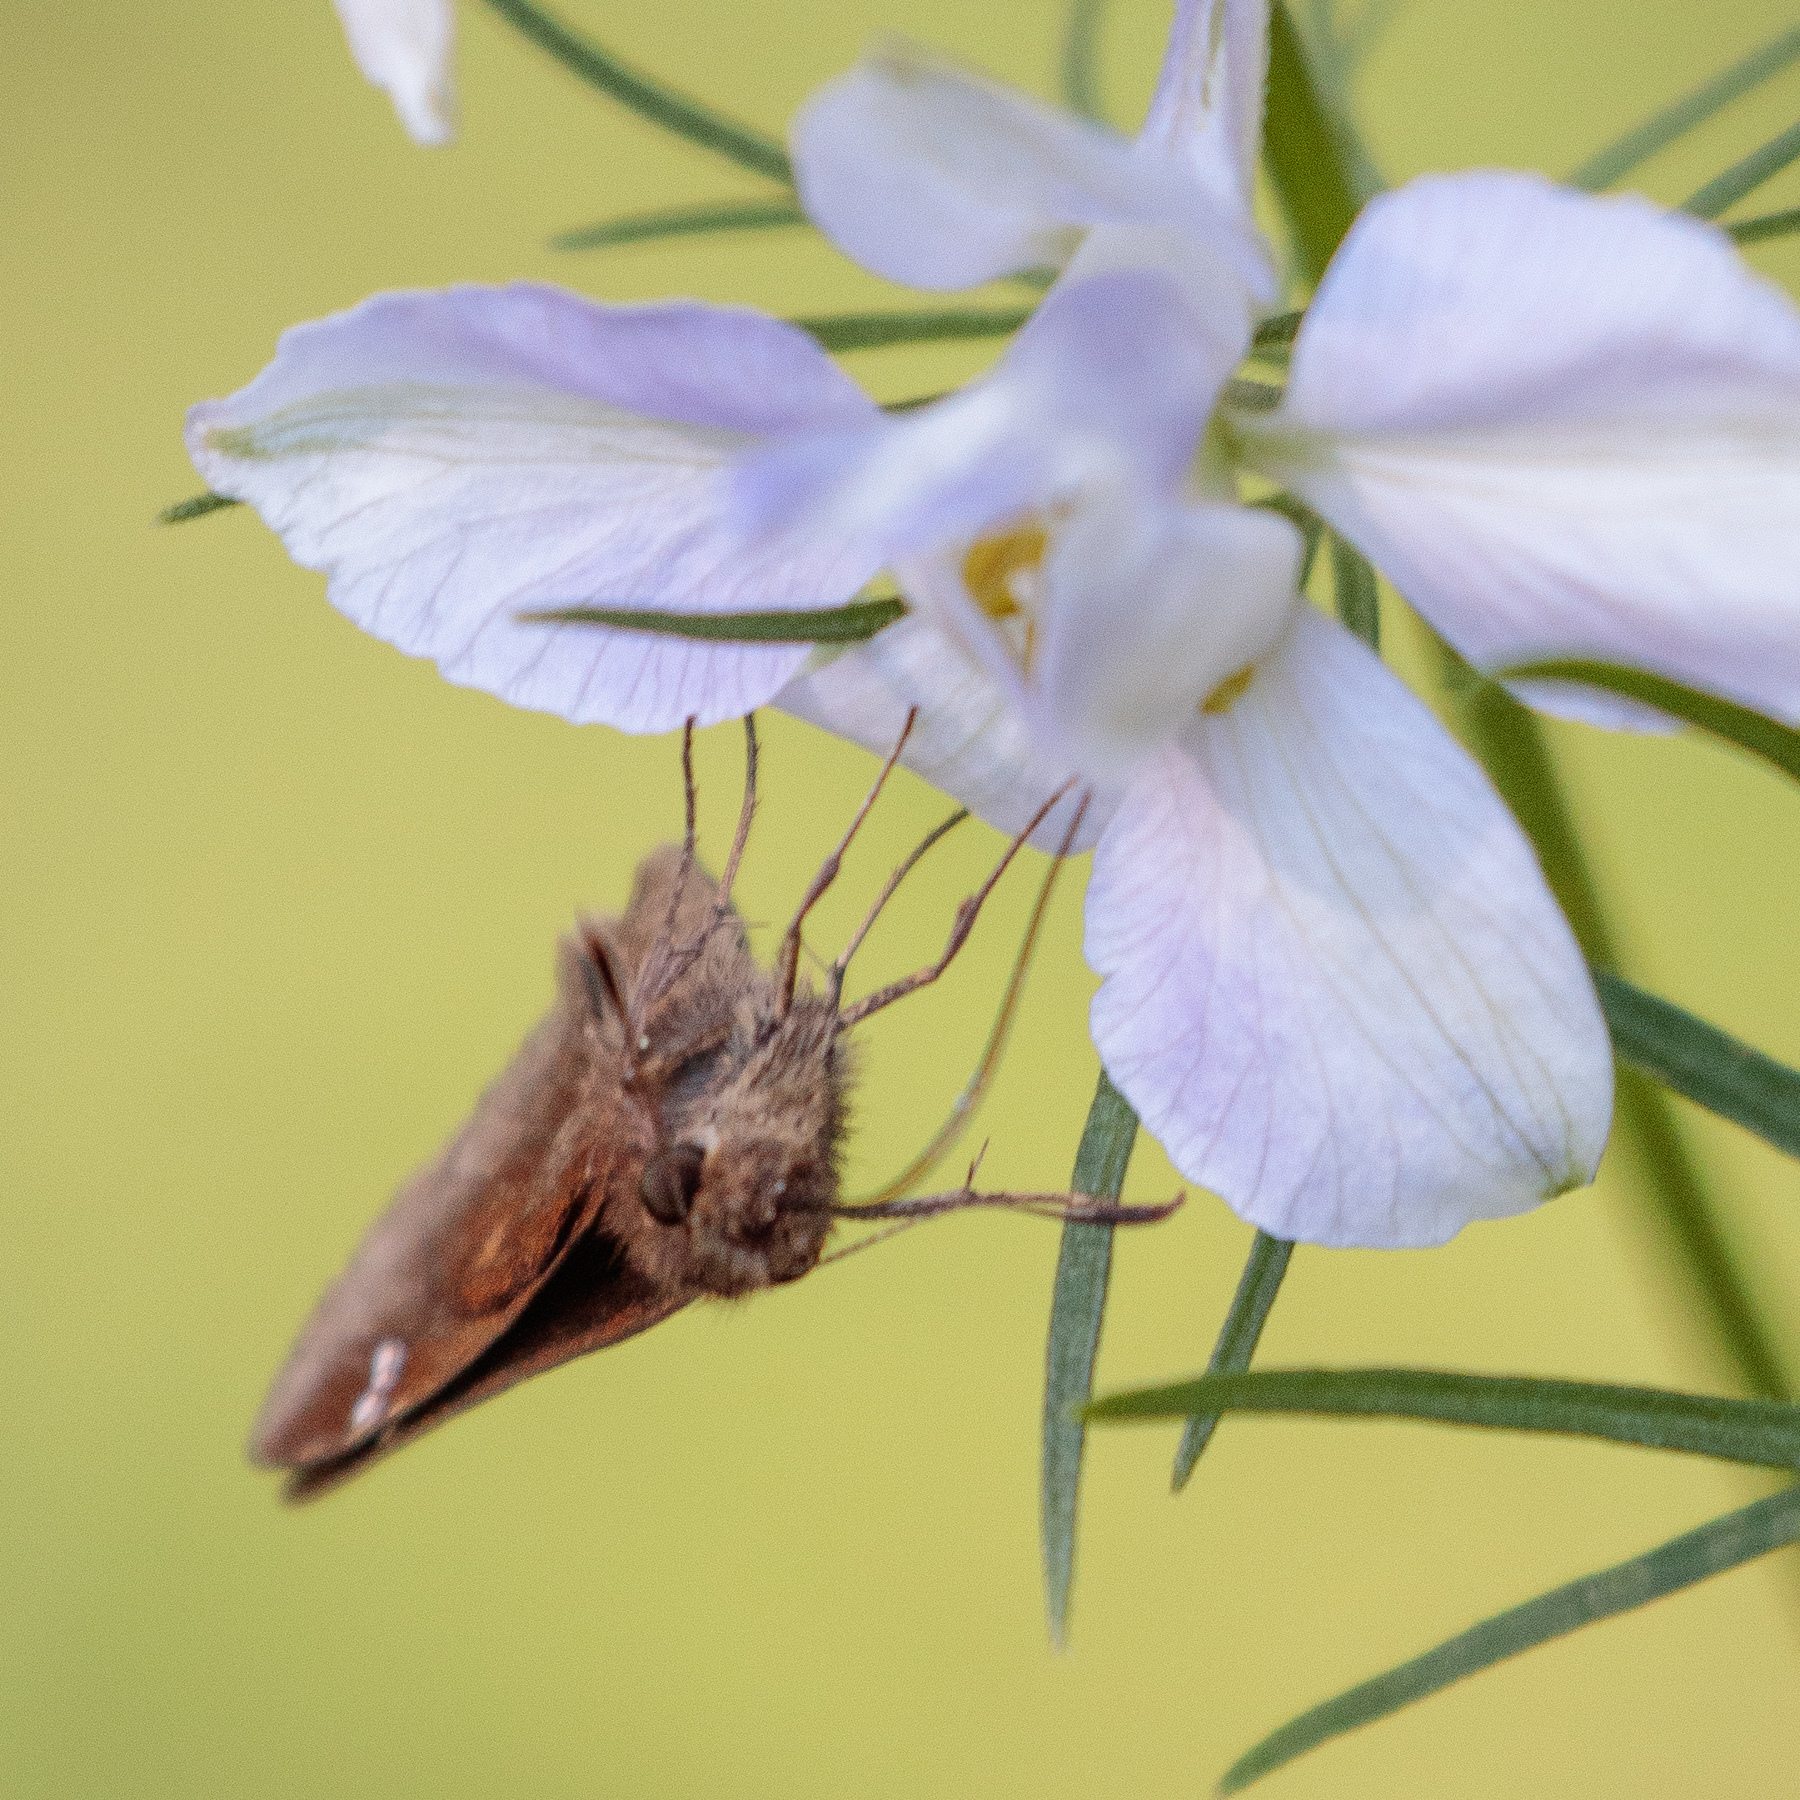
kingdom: Animalia
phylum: Arthropoda
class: Insecta
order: Lepidoptera
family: Hesperiidae
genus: Lerema
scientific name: Lerema accius
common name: Clouded skipper
